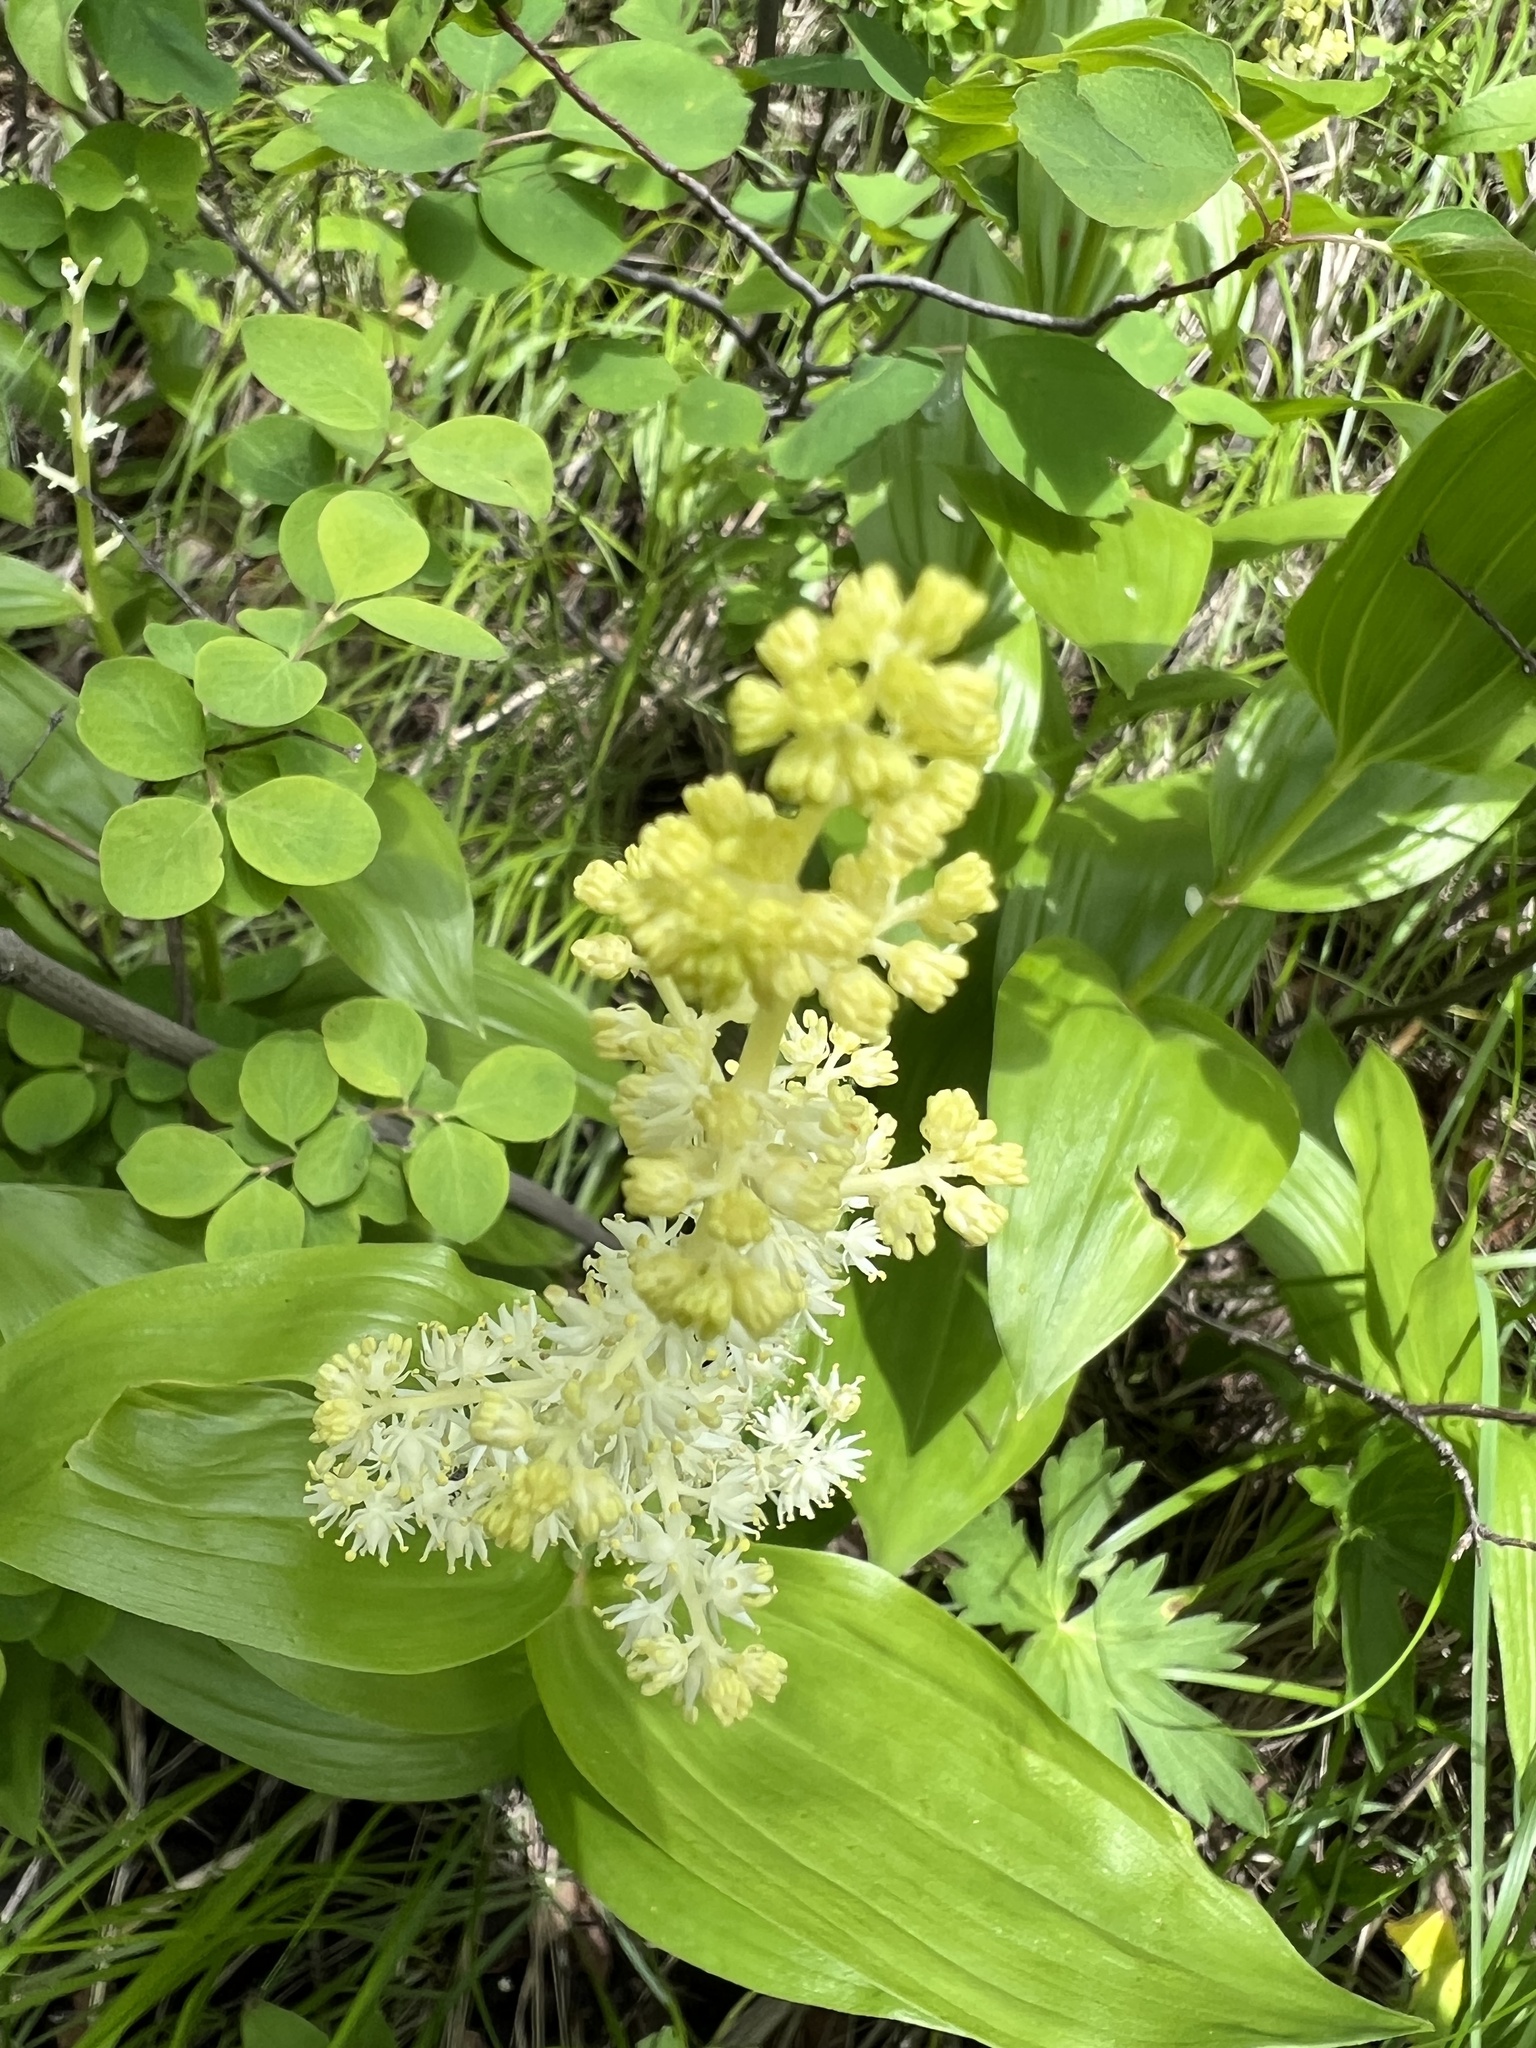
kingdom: Plantae
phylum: Tracheophyta
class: Liliopsida
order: Asparagales
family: Asparagaceae
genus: Maianthemum
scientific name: Maianthemum racemosum
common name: False spikenard
